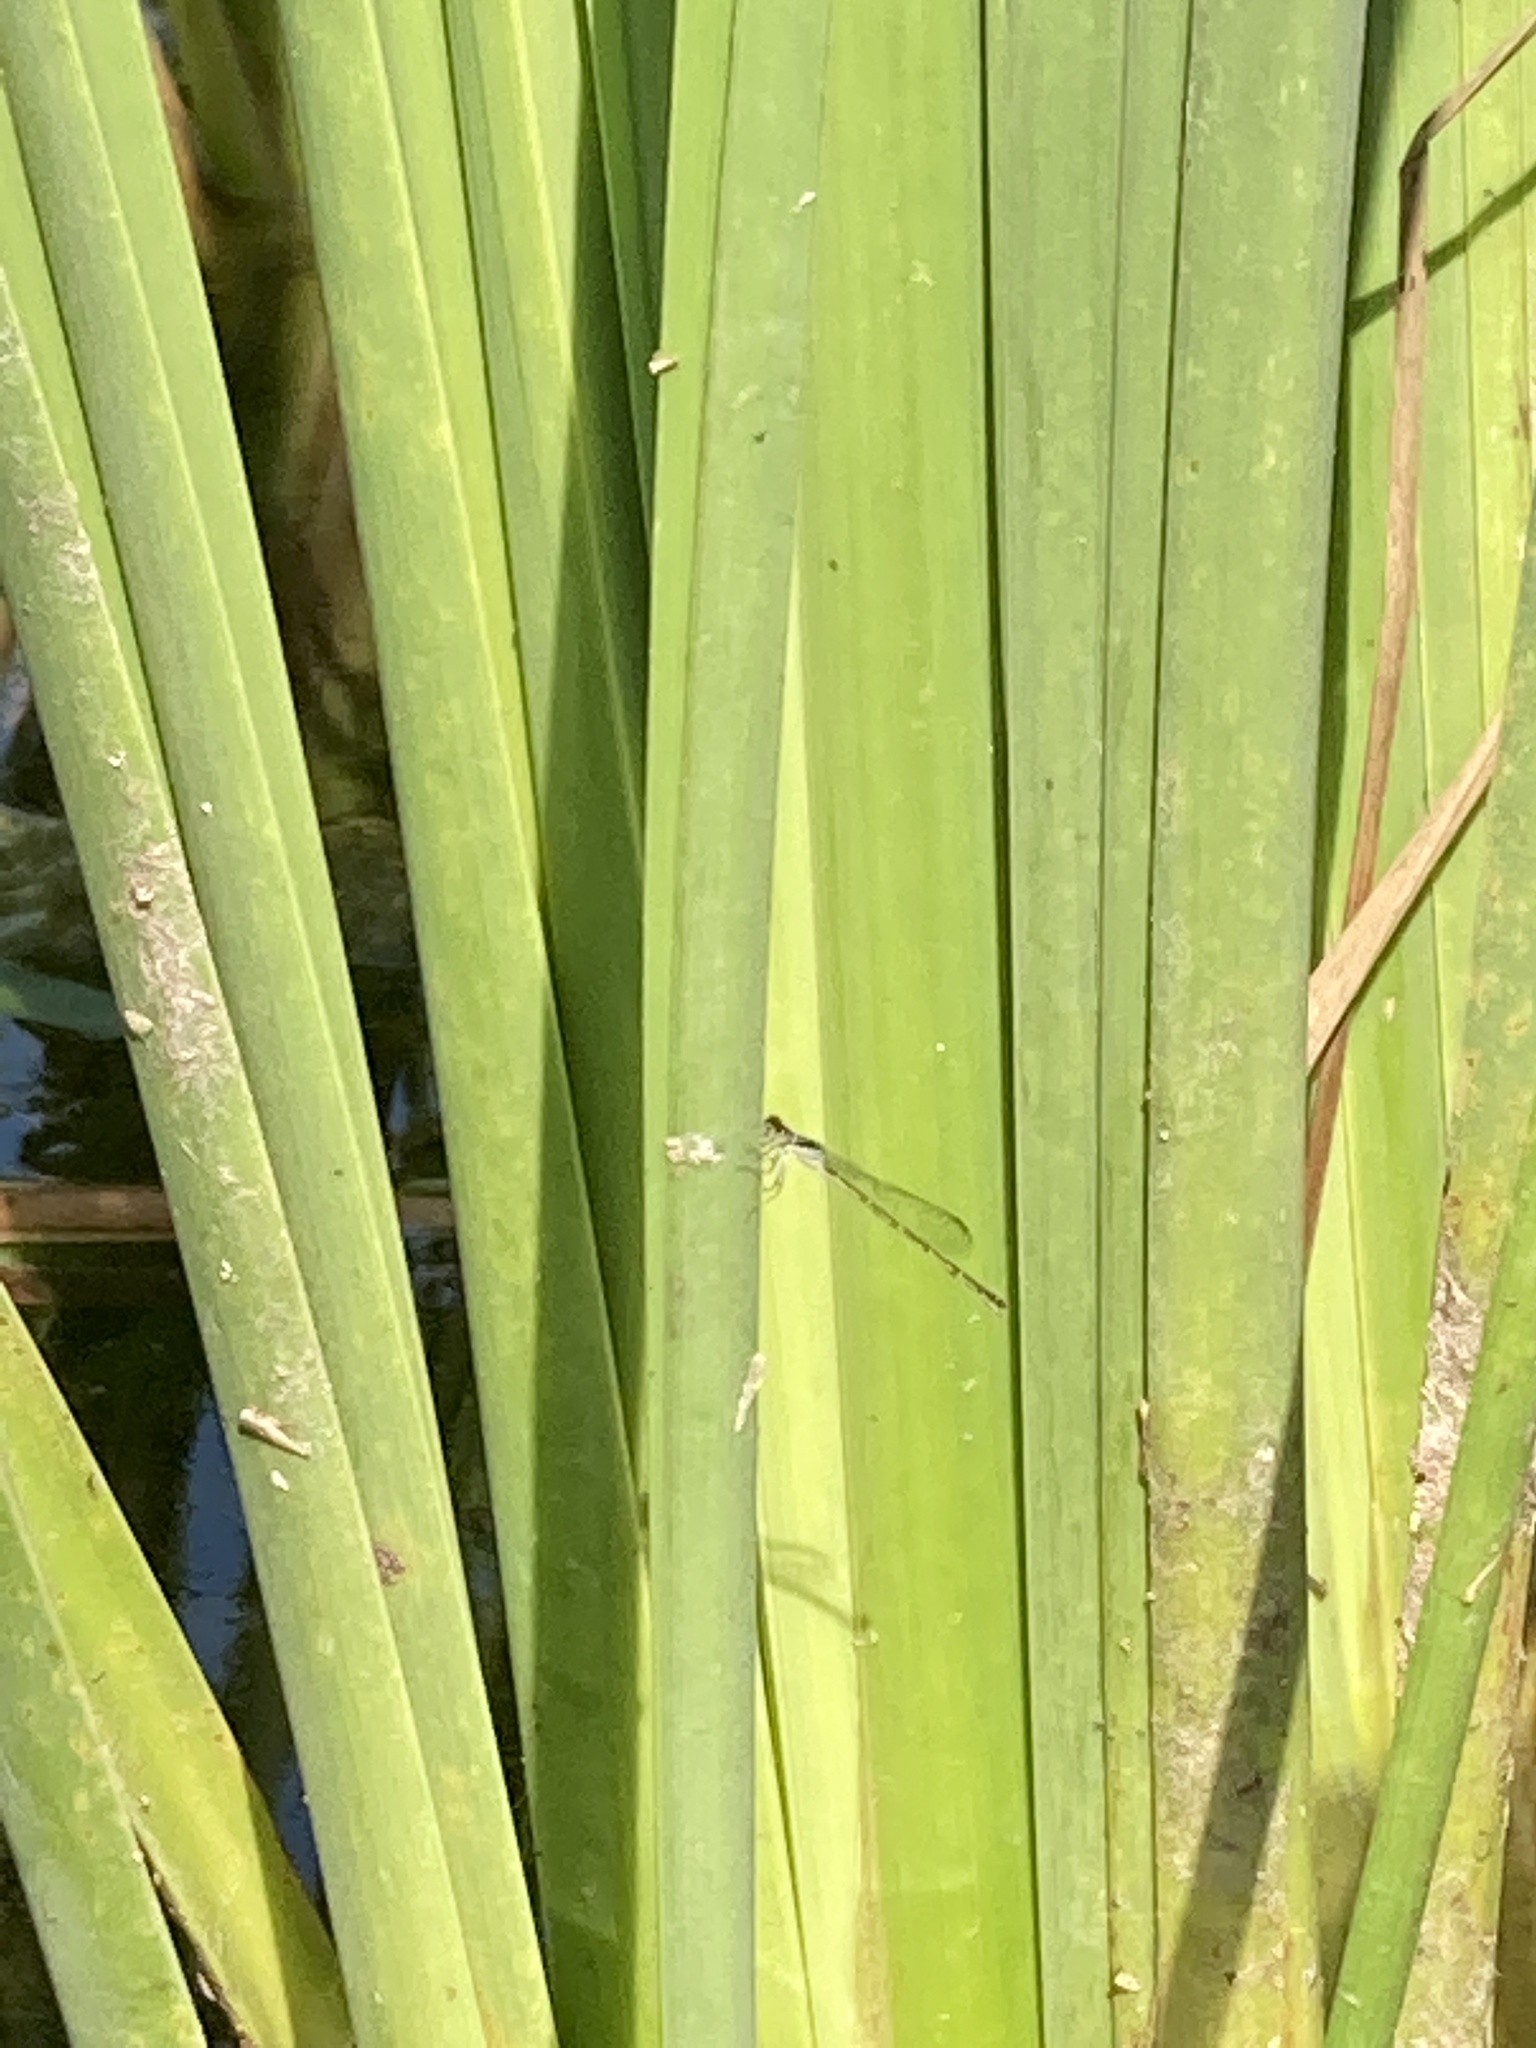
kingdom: Animalia
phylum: Arthropoda
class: Insecta
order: Odonata
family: Coenagrionidae
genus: Ischnura
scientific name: Ischnura posita
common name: Fragile forktail
